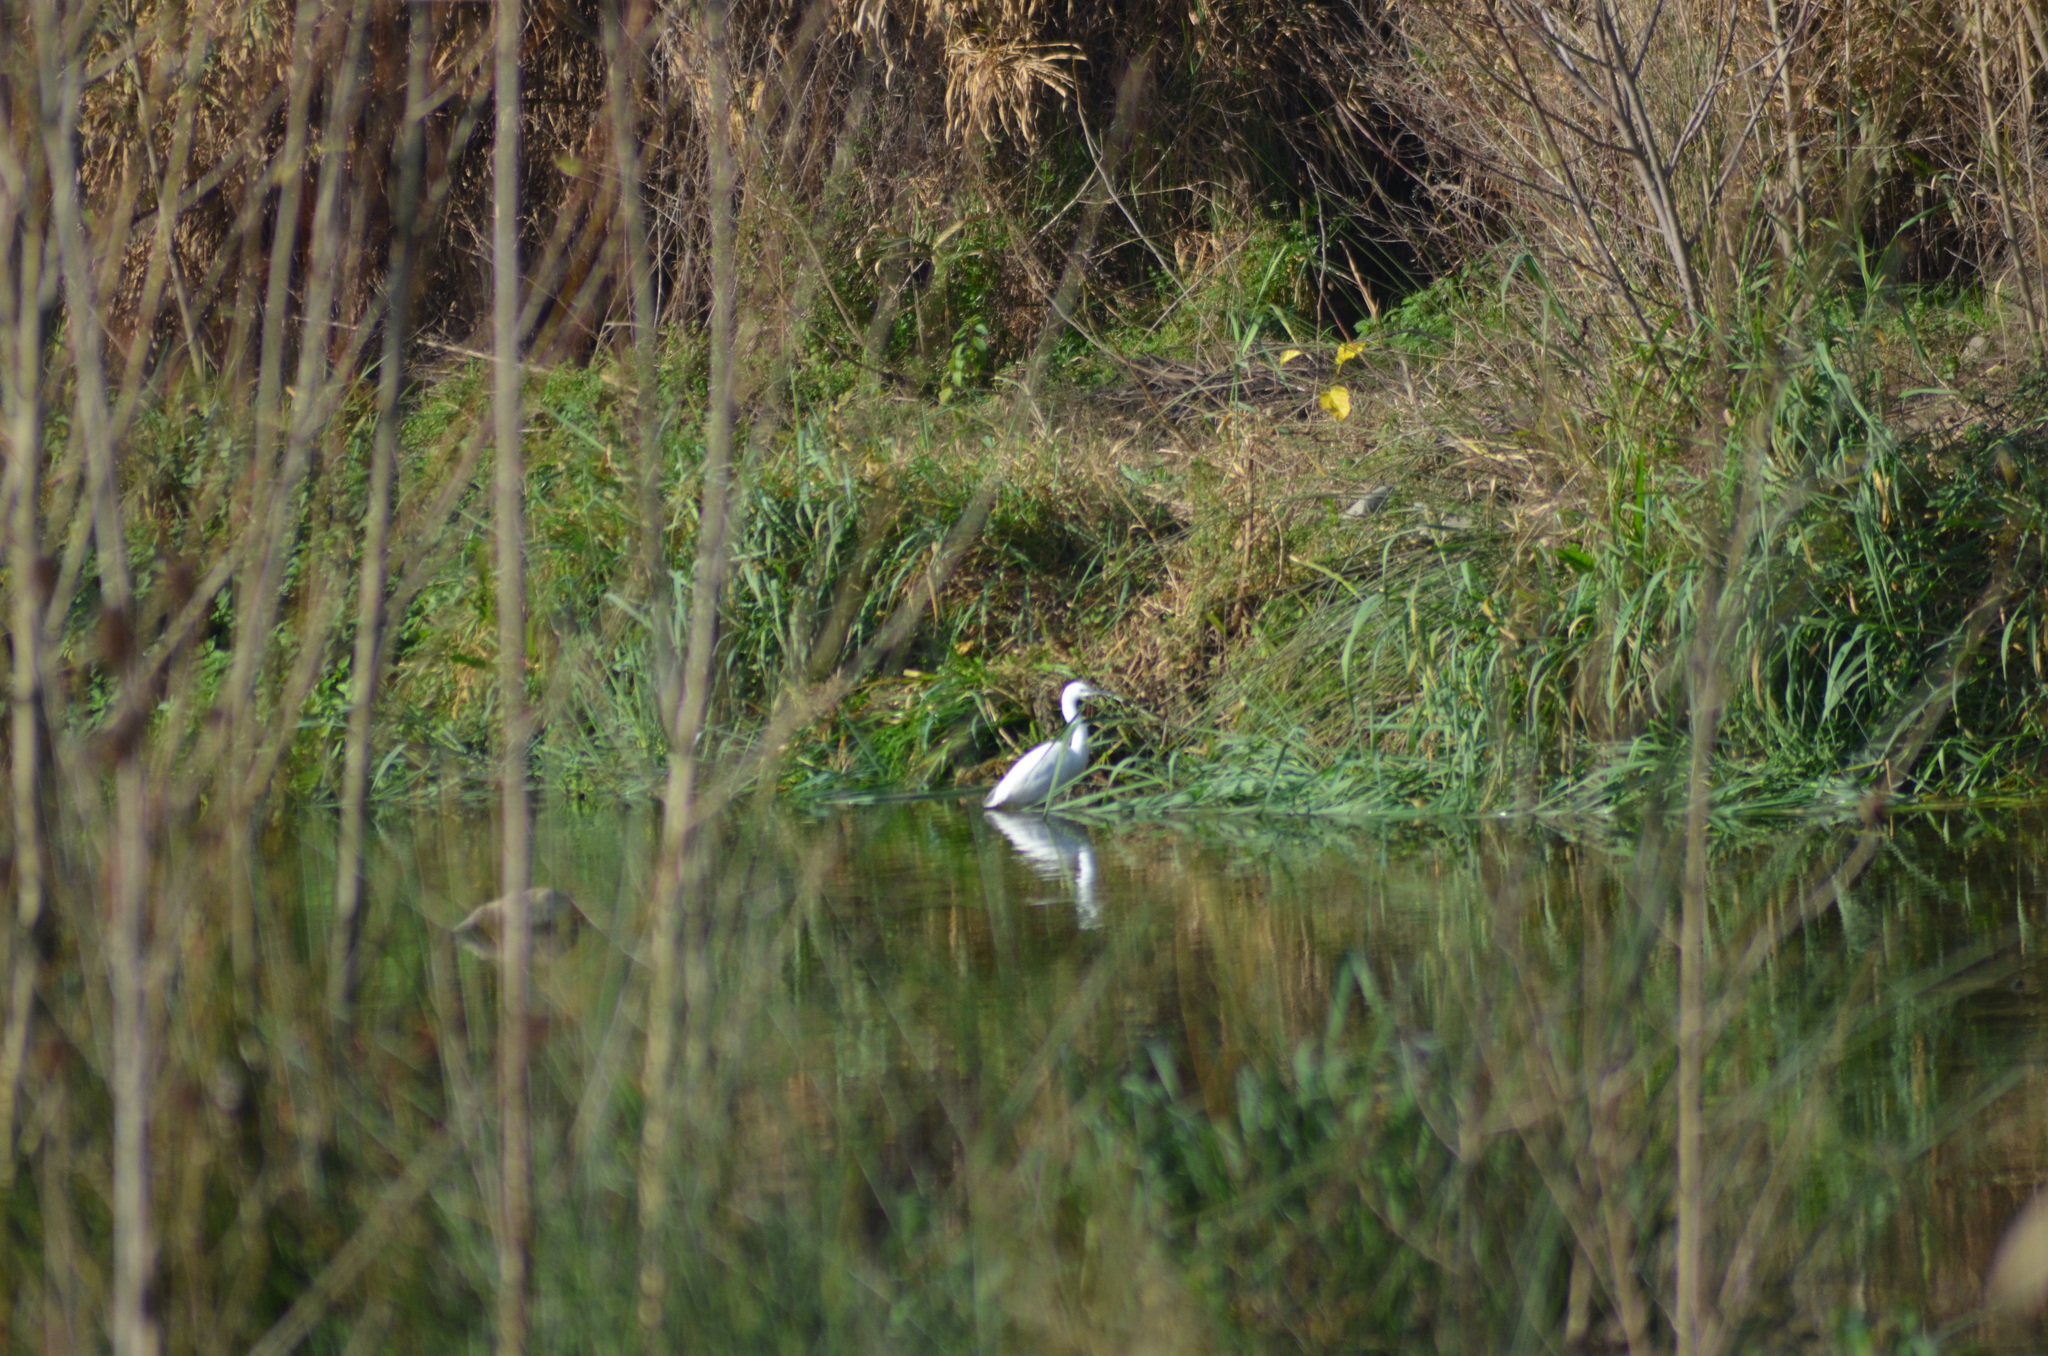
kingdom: Animalia
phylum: Chordata
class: Aves
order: Pelecaniformes
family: Ardeidae
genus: Egretta
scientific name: Egretta garzetta
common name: Little egret
